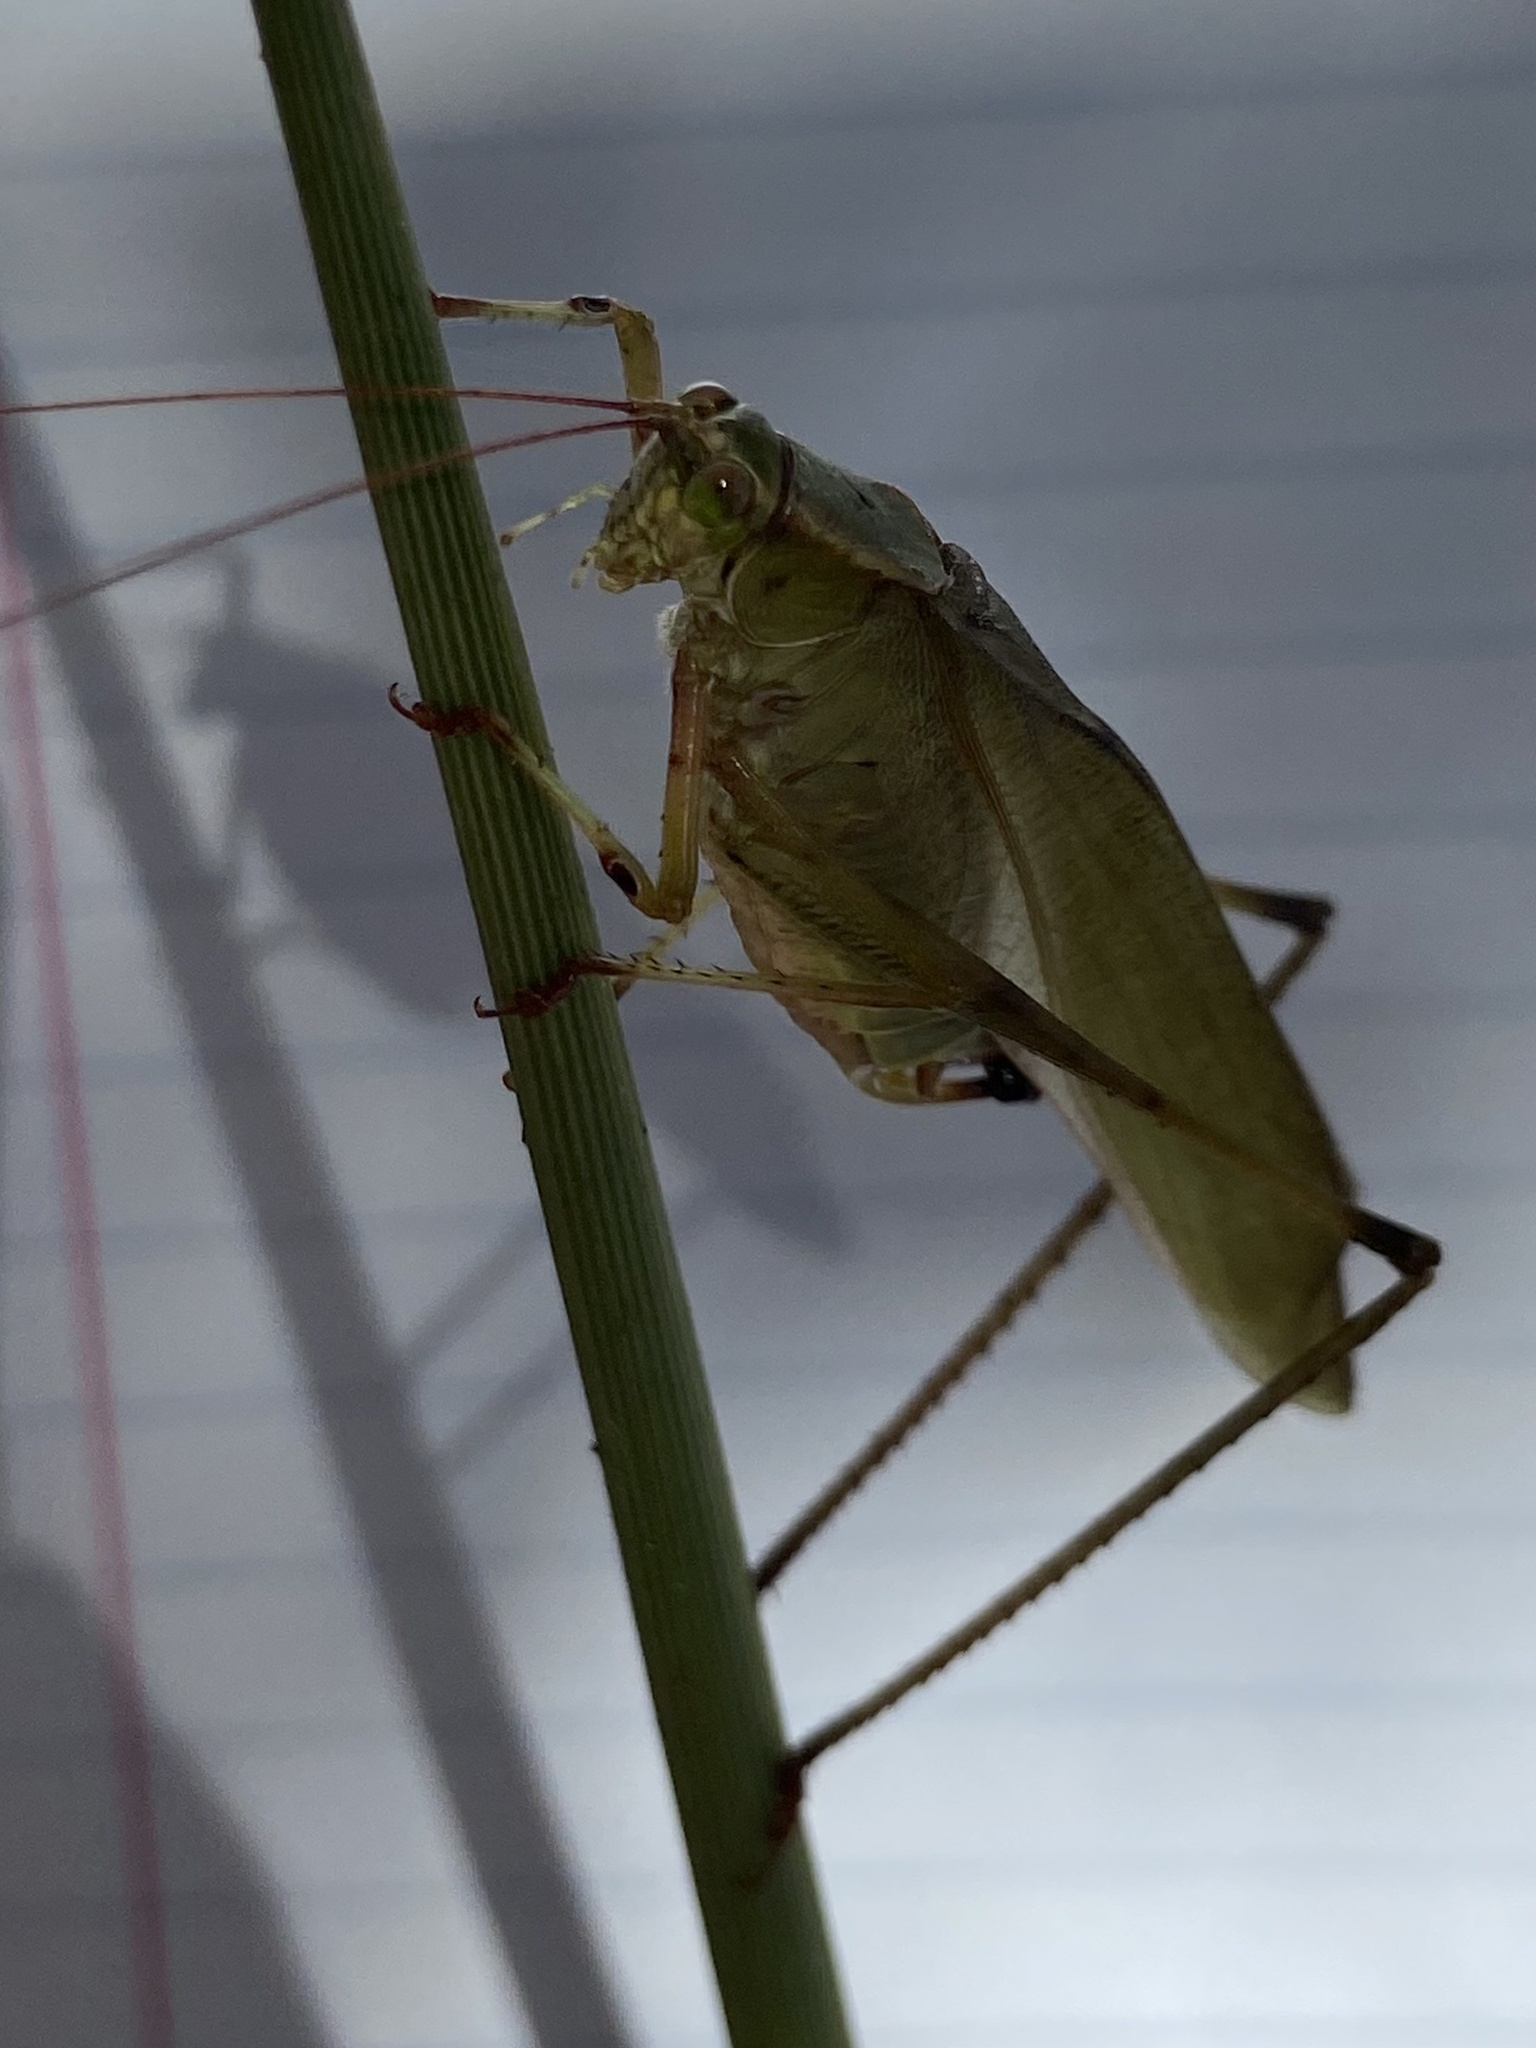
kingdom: Animalia
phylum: Arthropoda
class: Insecta
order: Orthoptera
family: Tettigoniidae
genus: Scudderia
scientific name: Scudderia furcata
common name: Fork-tailed bush katydid
